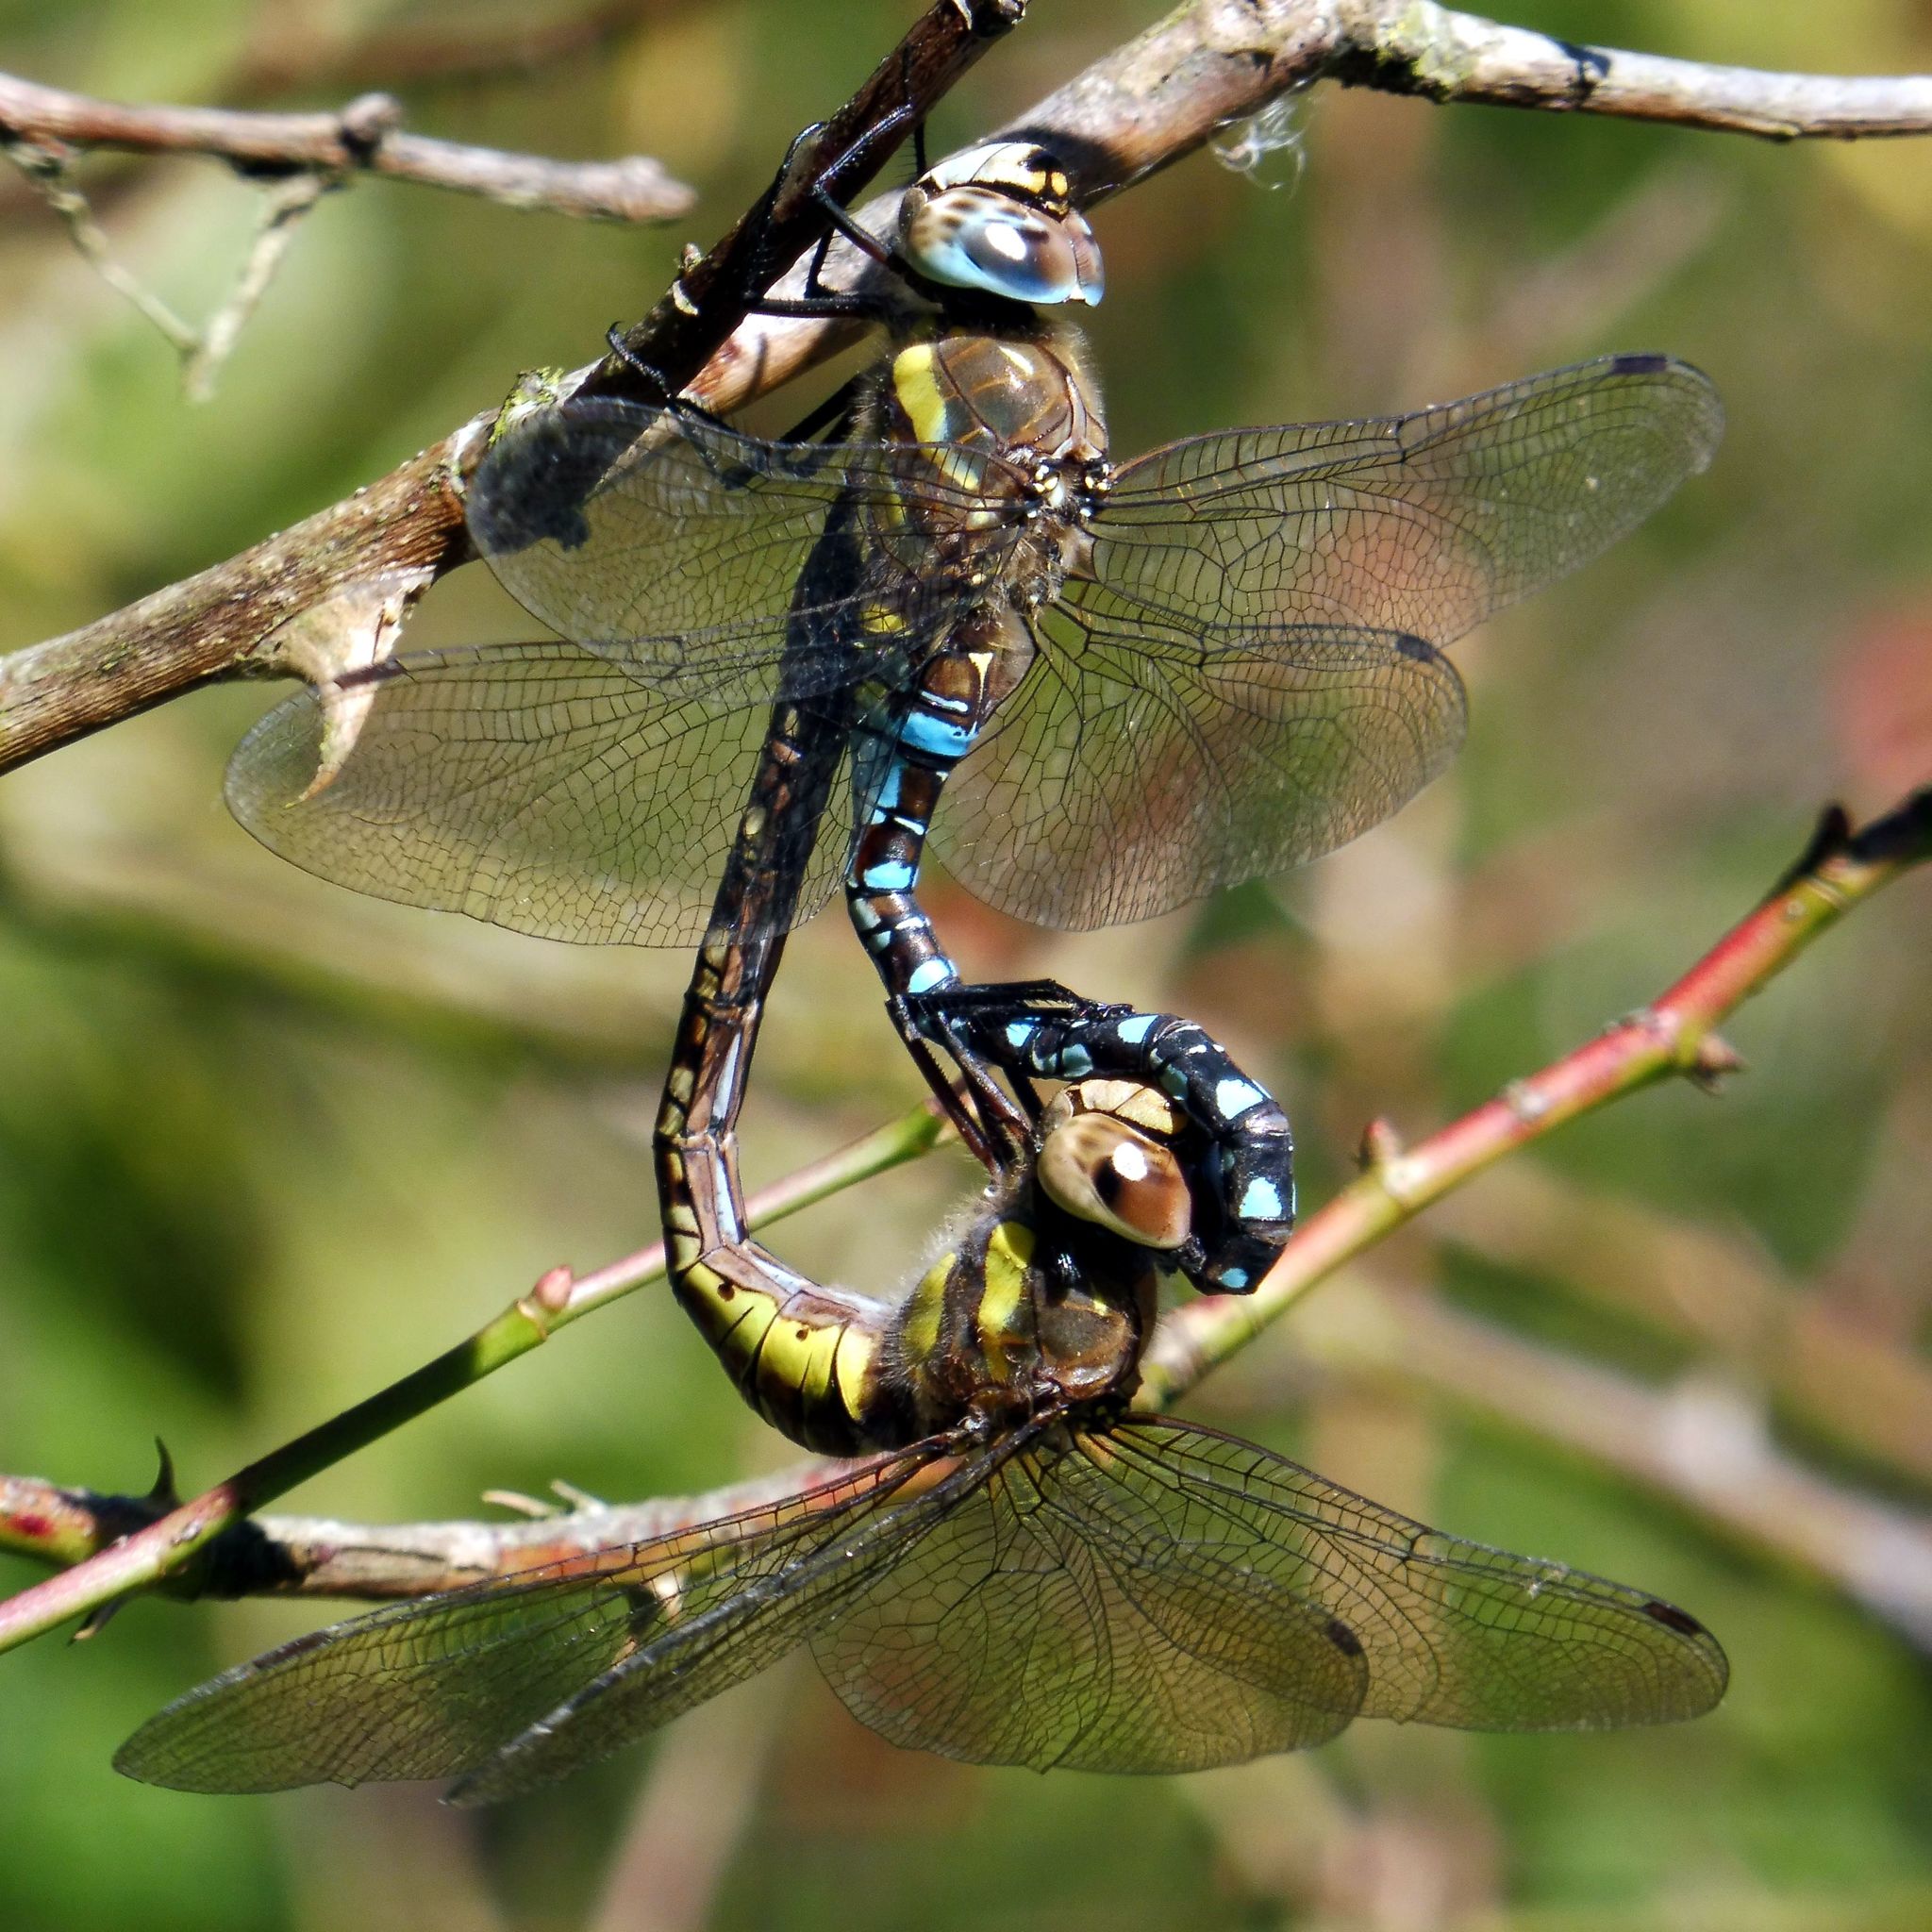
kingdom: Animalia
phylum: Arthropoda
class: Insecta
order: Odonata
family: Aeshnidae
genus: Aeshna
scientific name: Aeshna mixta
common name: Migrant hawker
